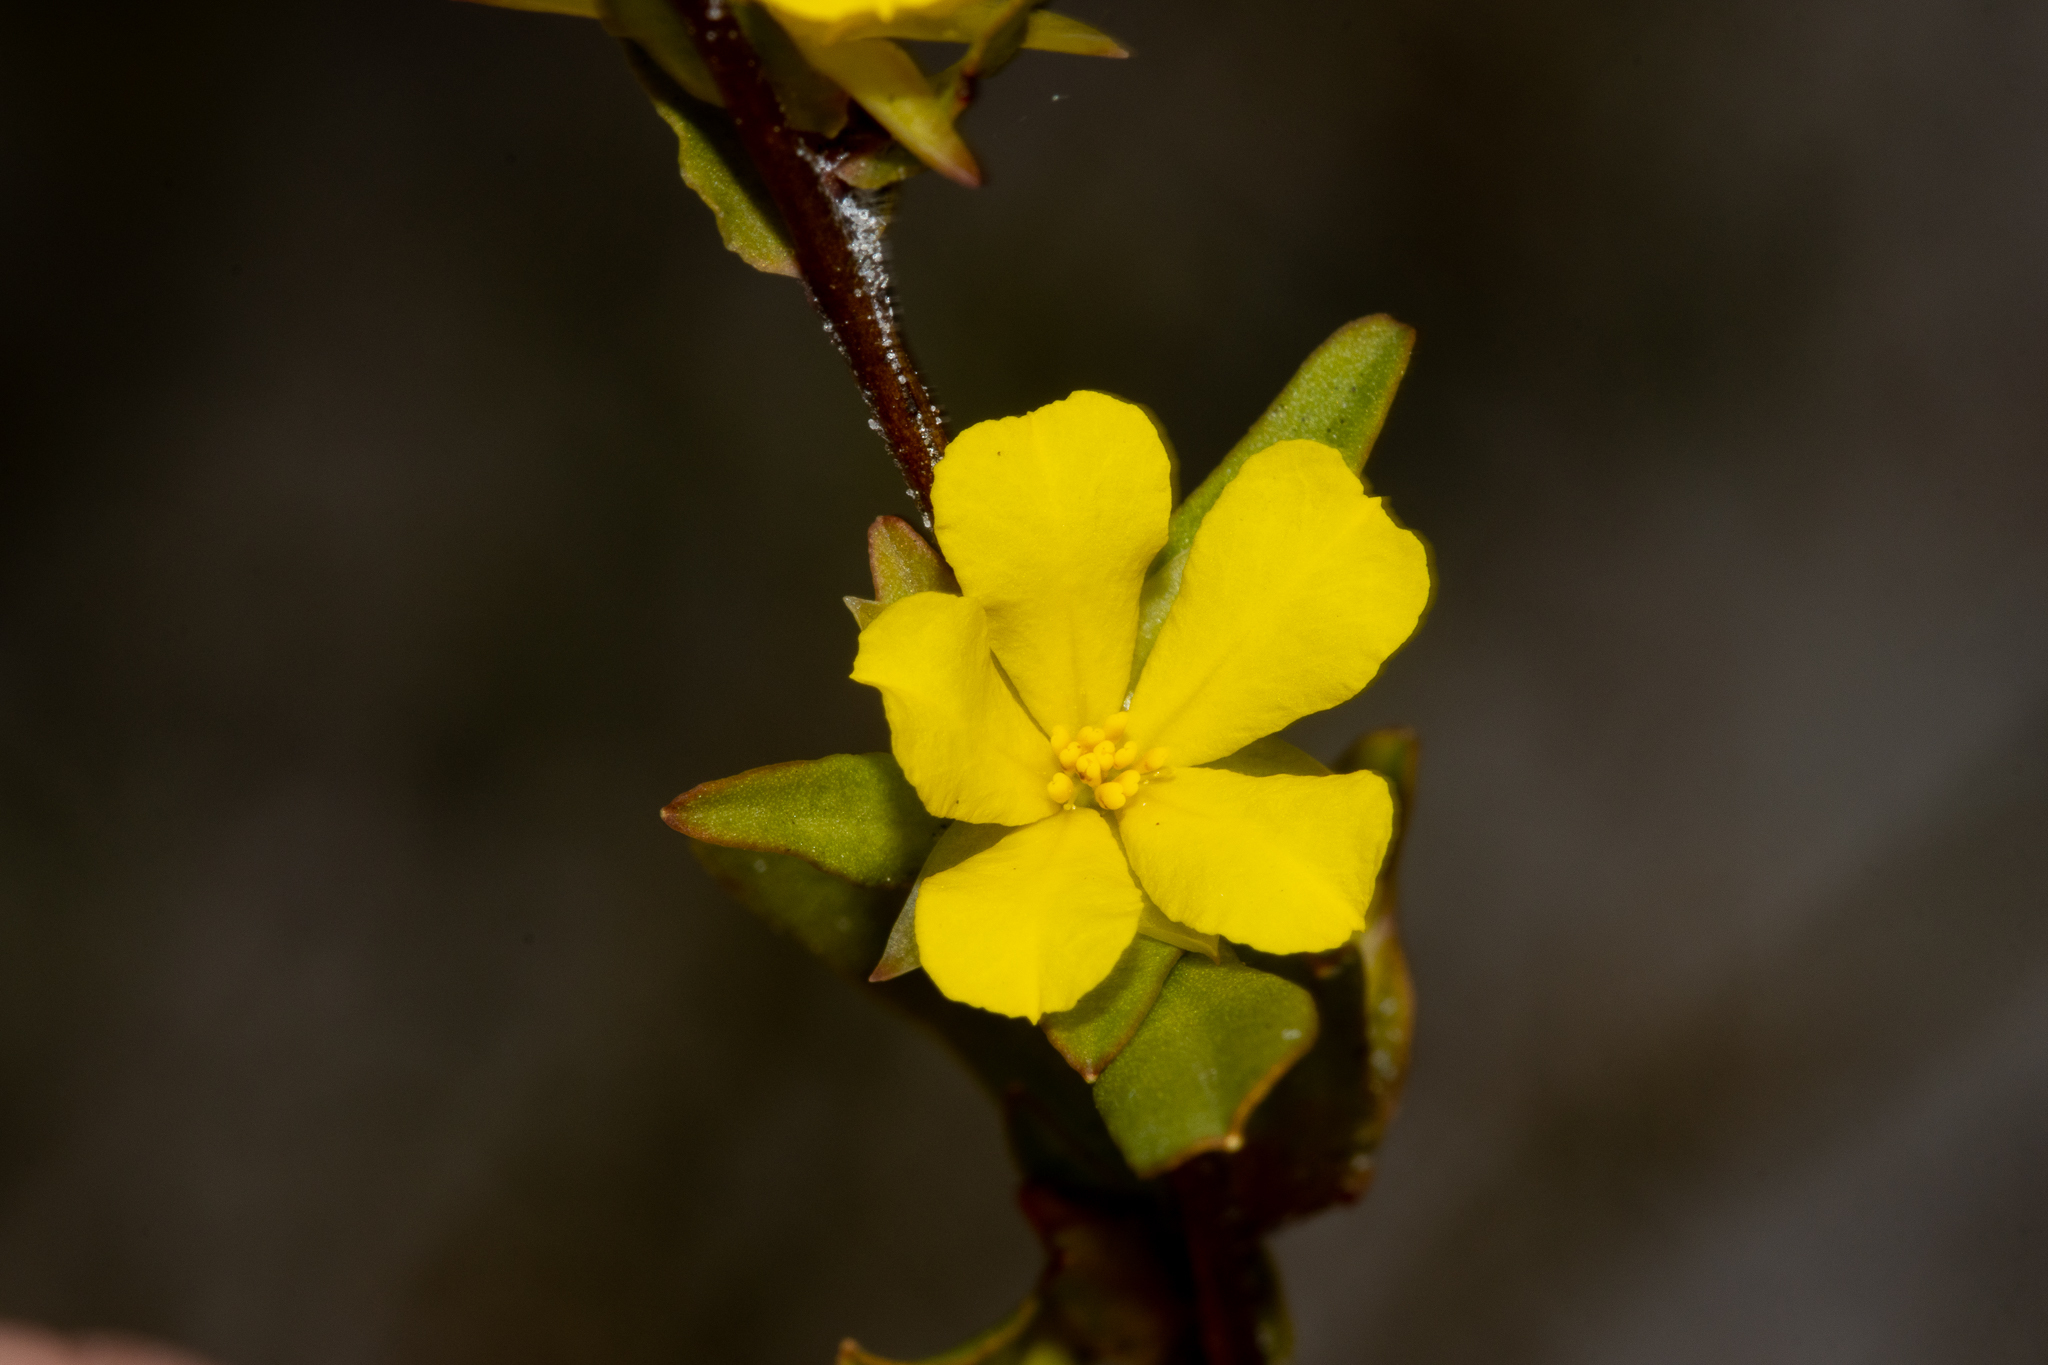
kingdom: Plantae
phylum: Tracheophyta
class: Magnoliopsida
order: Dilleniales
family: Dilleniaceae
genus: Hibbertia
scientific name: Hibbertia glomerata
